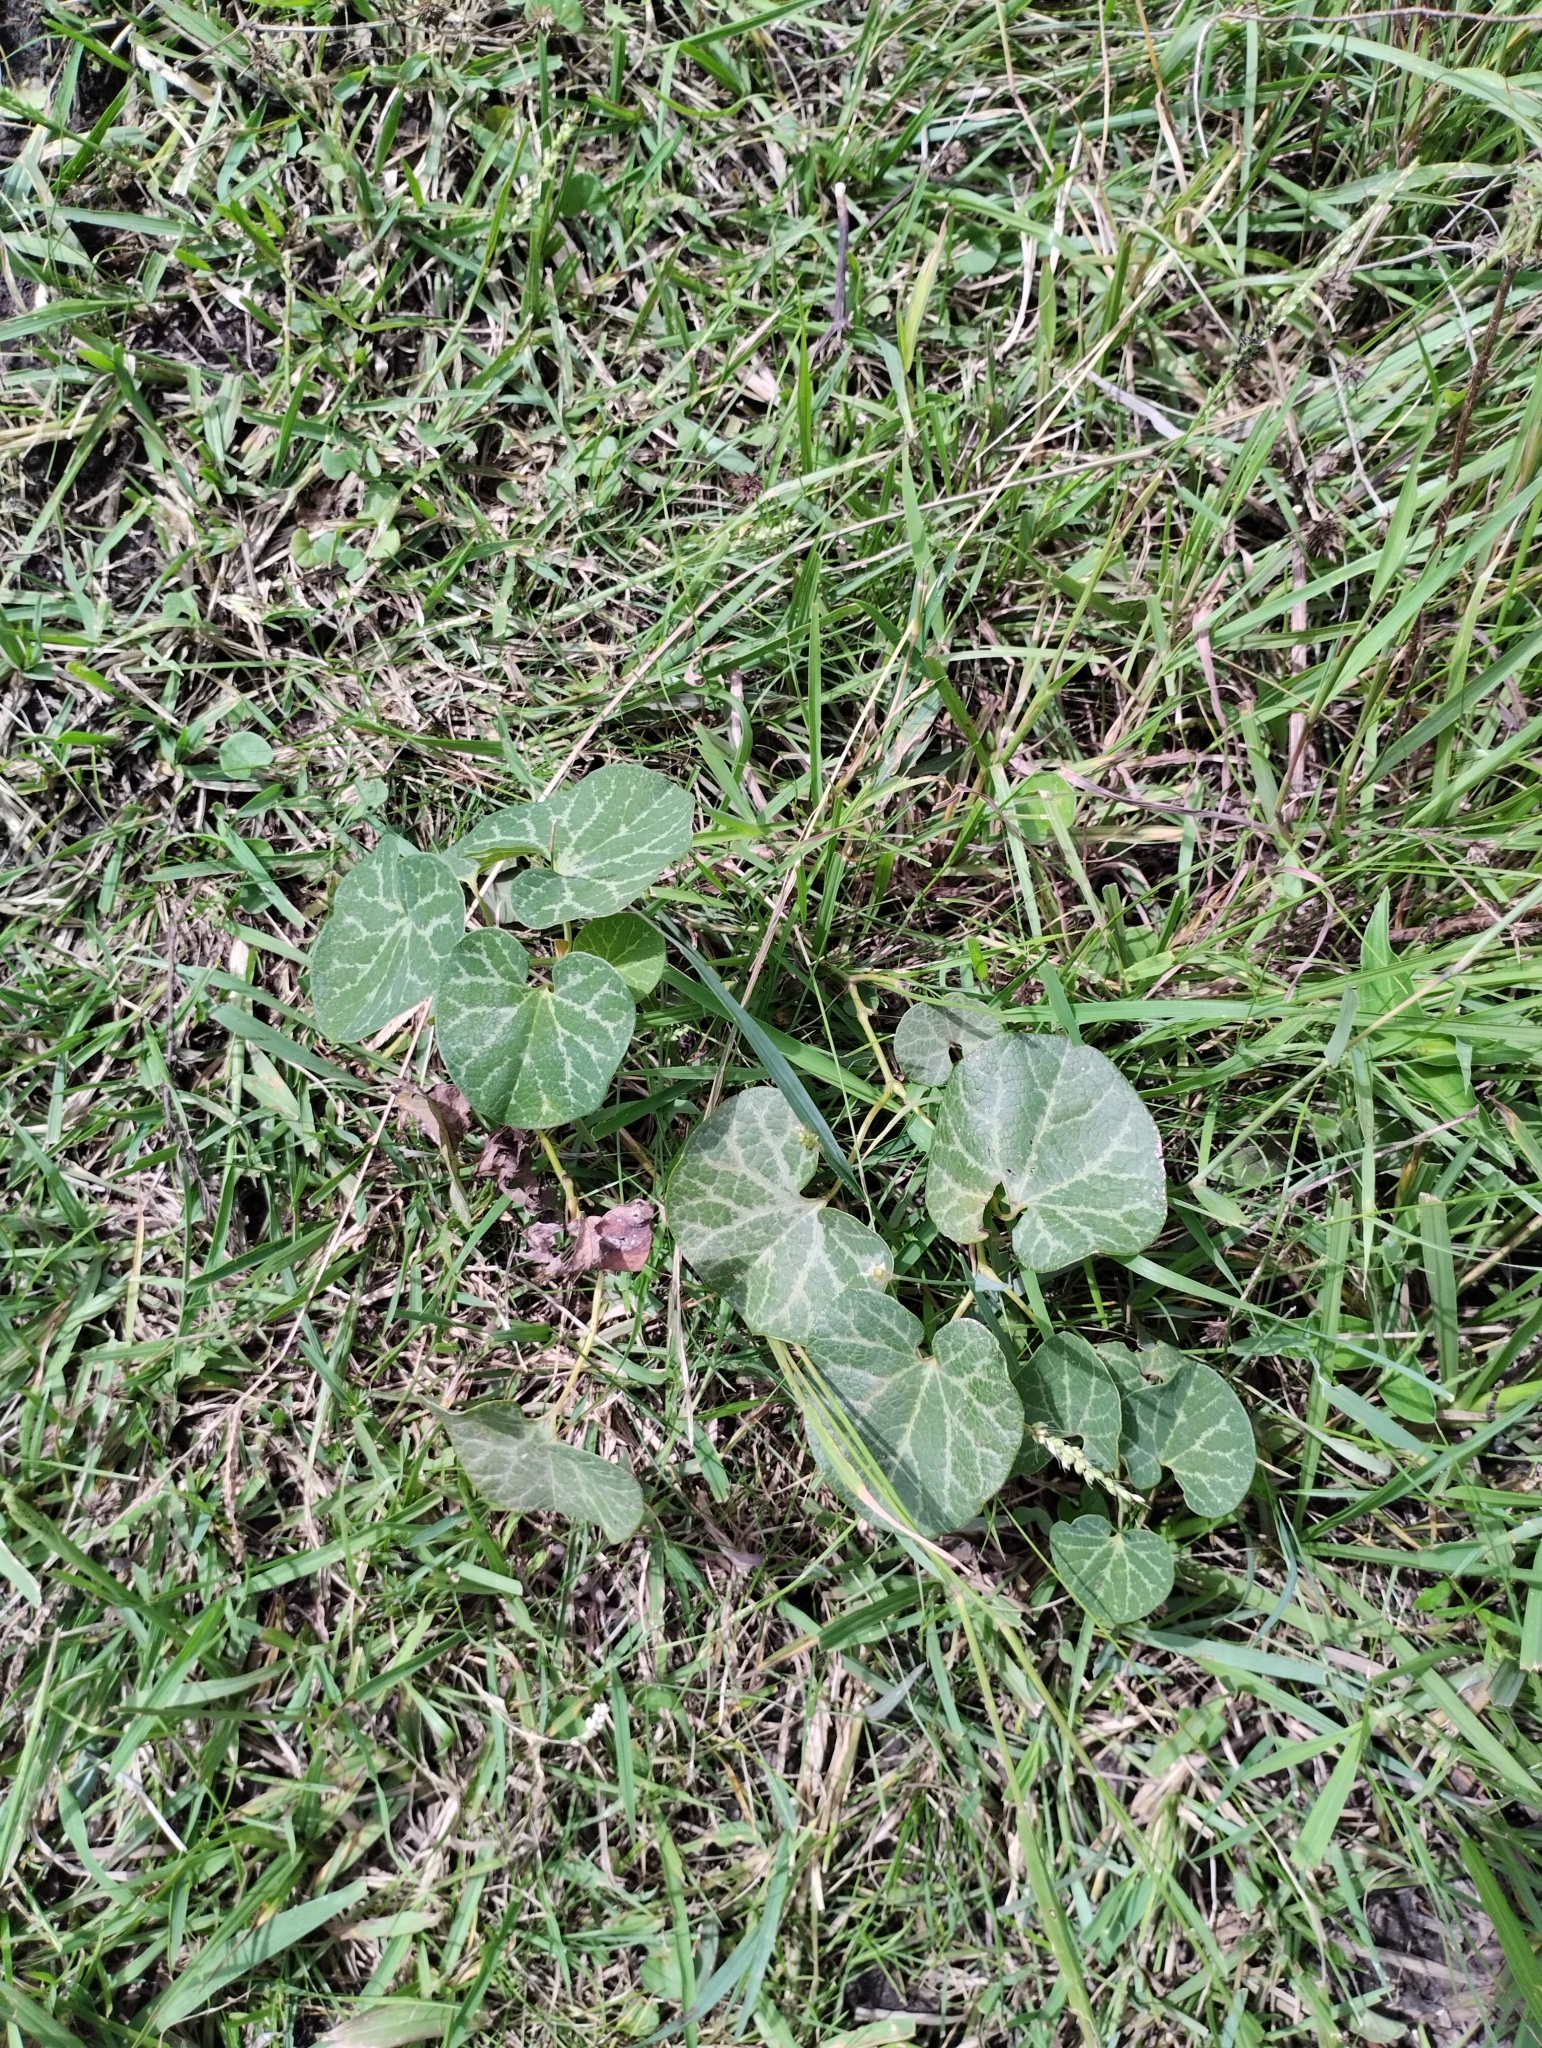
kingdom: Plantae
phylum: Tracheophyta
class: Magnoliopsida
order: Piperales
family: Aristolochiaceae
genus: Aristolochia
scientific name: Aristolochia fimbriata
